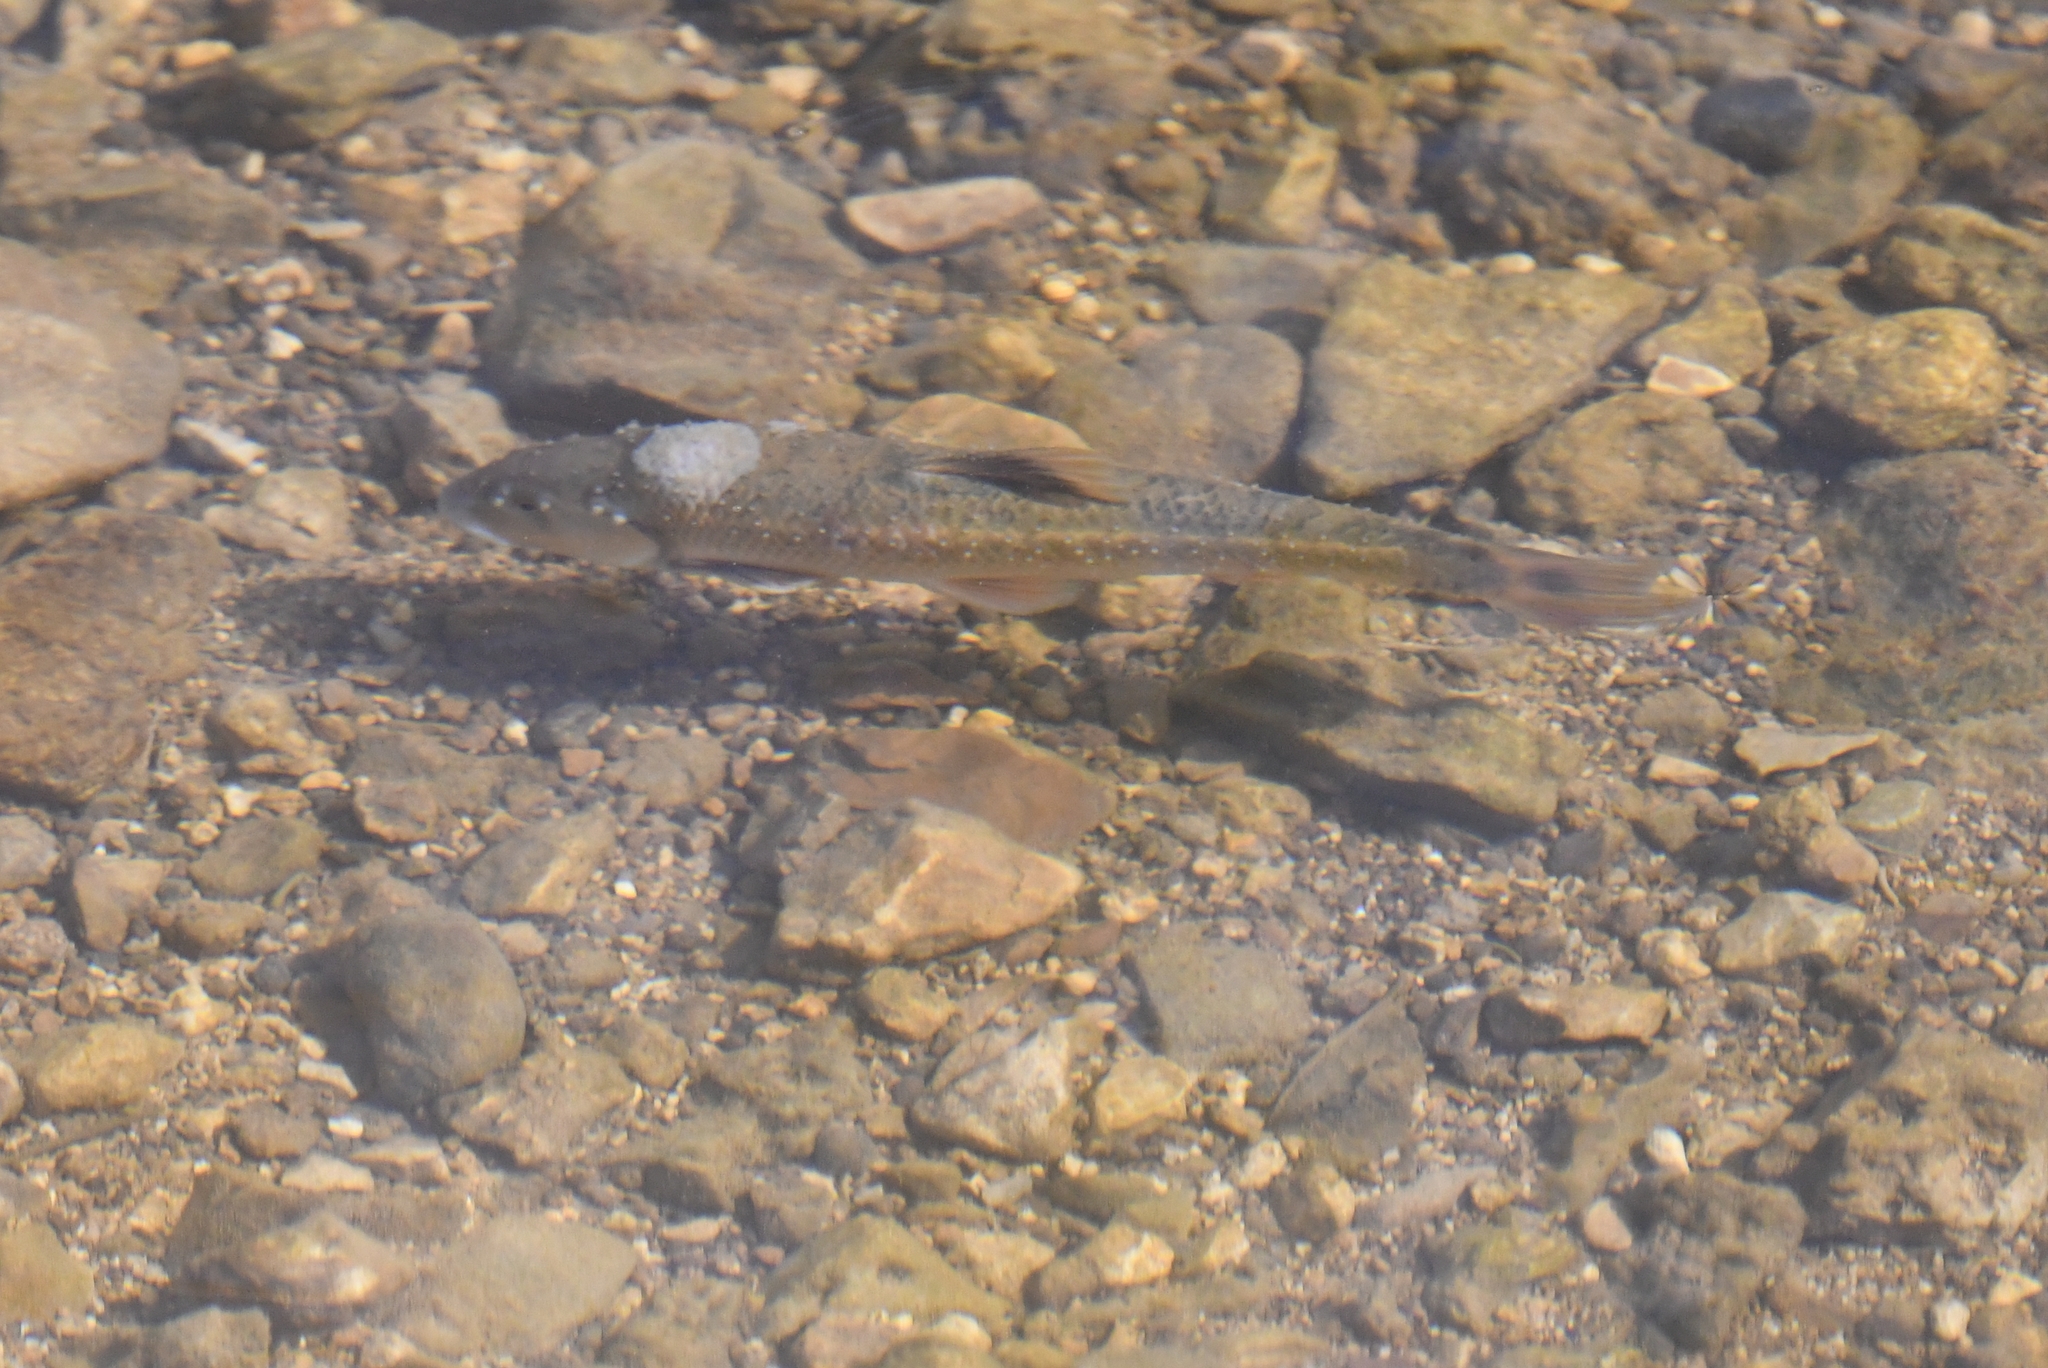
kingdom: Animalia
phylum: Chordata
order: Cypriniformes
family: Cyprinidae
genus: Campostoma
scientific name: Campostoma oligolepis
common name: Largescale stoneroller
